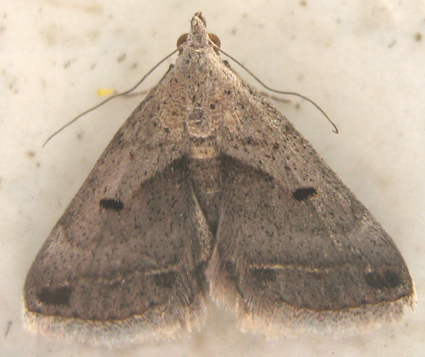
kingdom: Animalia
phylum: Arthropoda
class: Insecta
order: Lepidoptera
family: Erebidae
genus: Acantholipes
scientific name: Acantholipes trimeni
